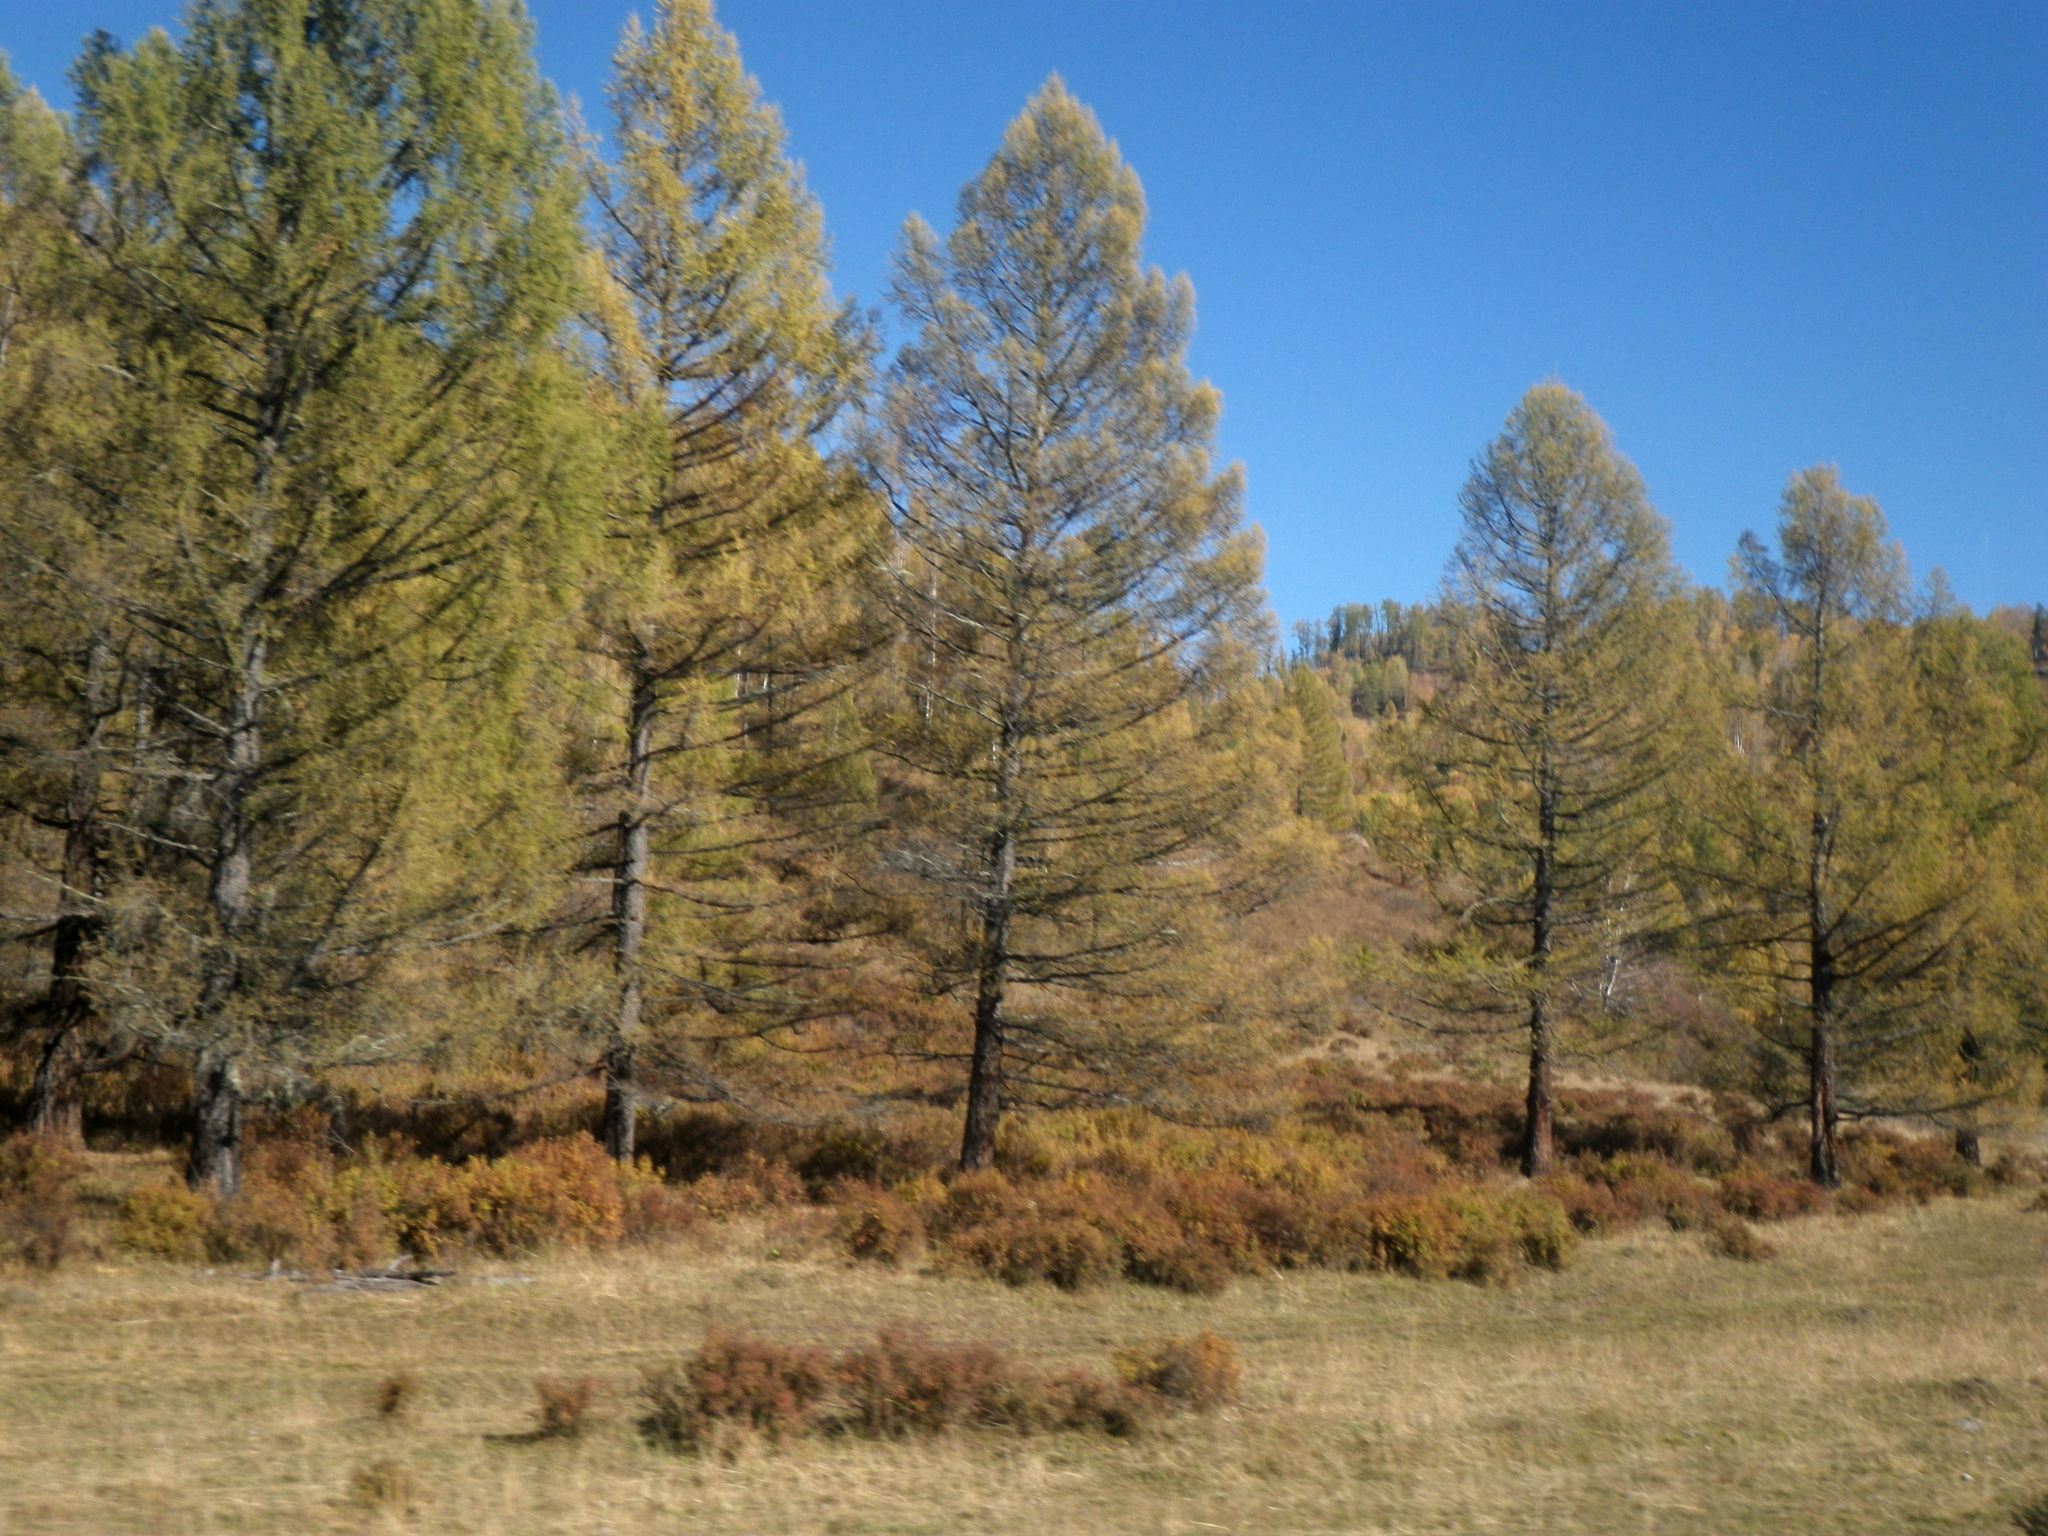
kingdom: Plantae
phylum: Tracheophyta
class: Pinopsida
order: Pinales
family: Pinaceae
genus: Larix
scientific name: Larix sibirica
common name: Siberian larch
